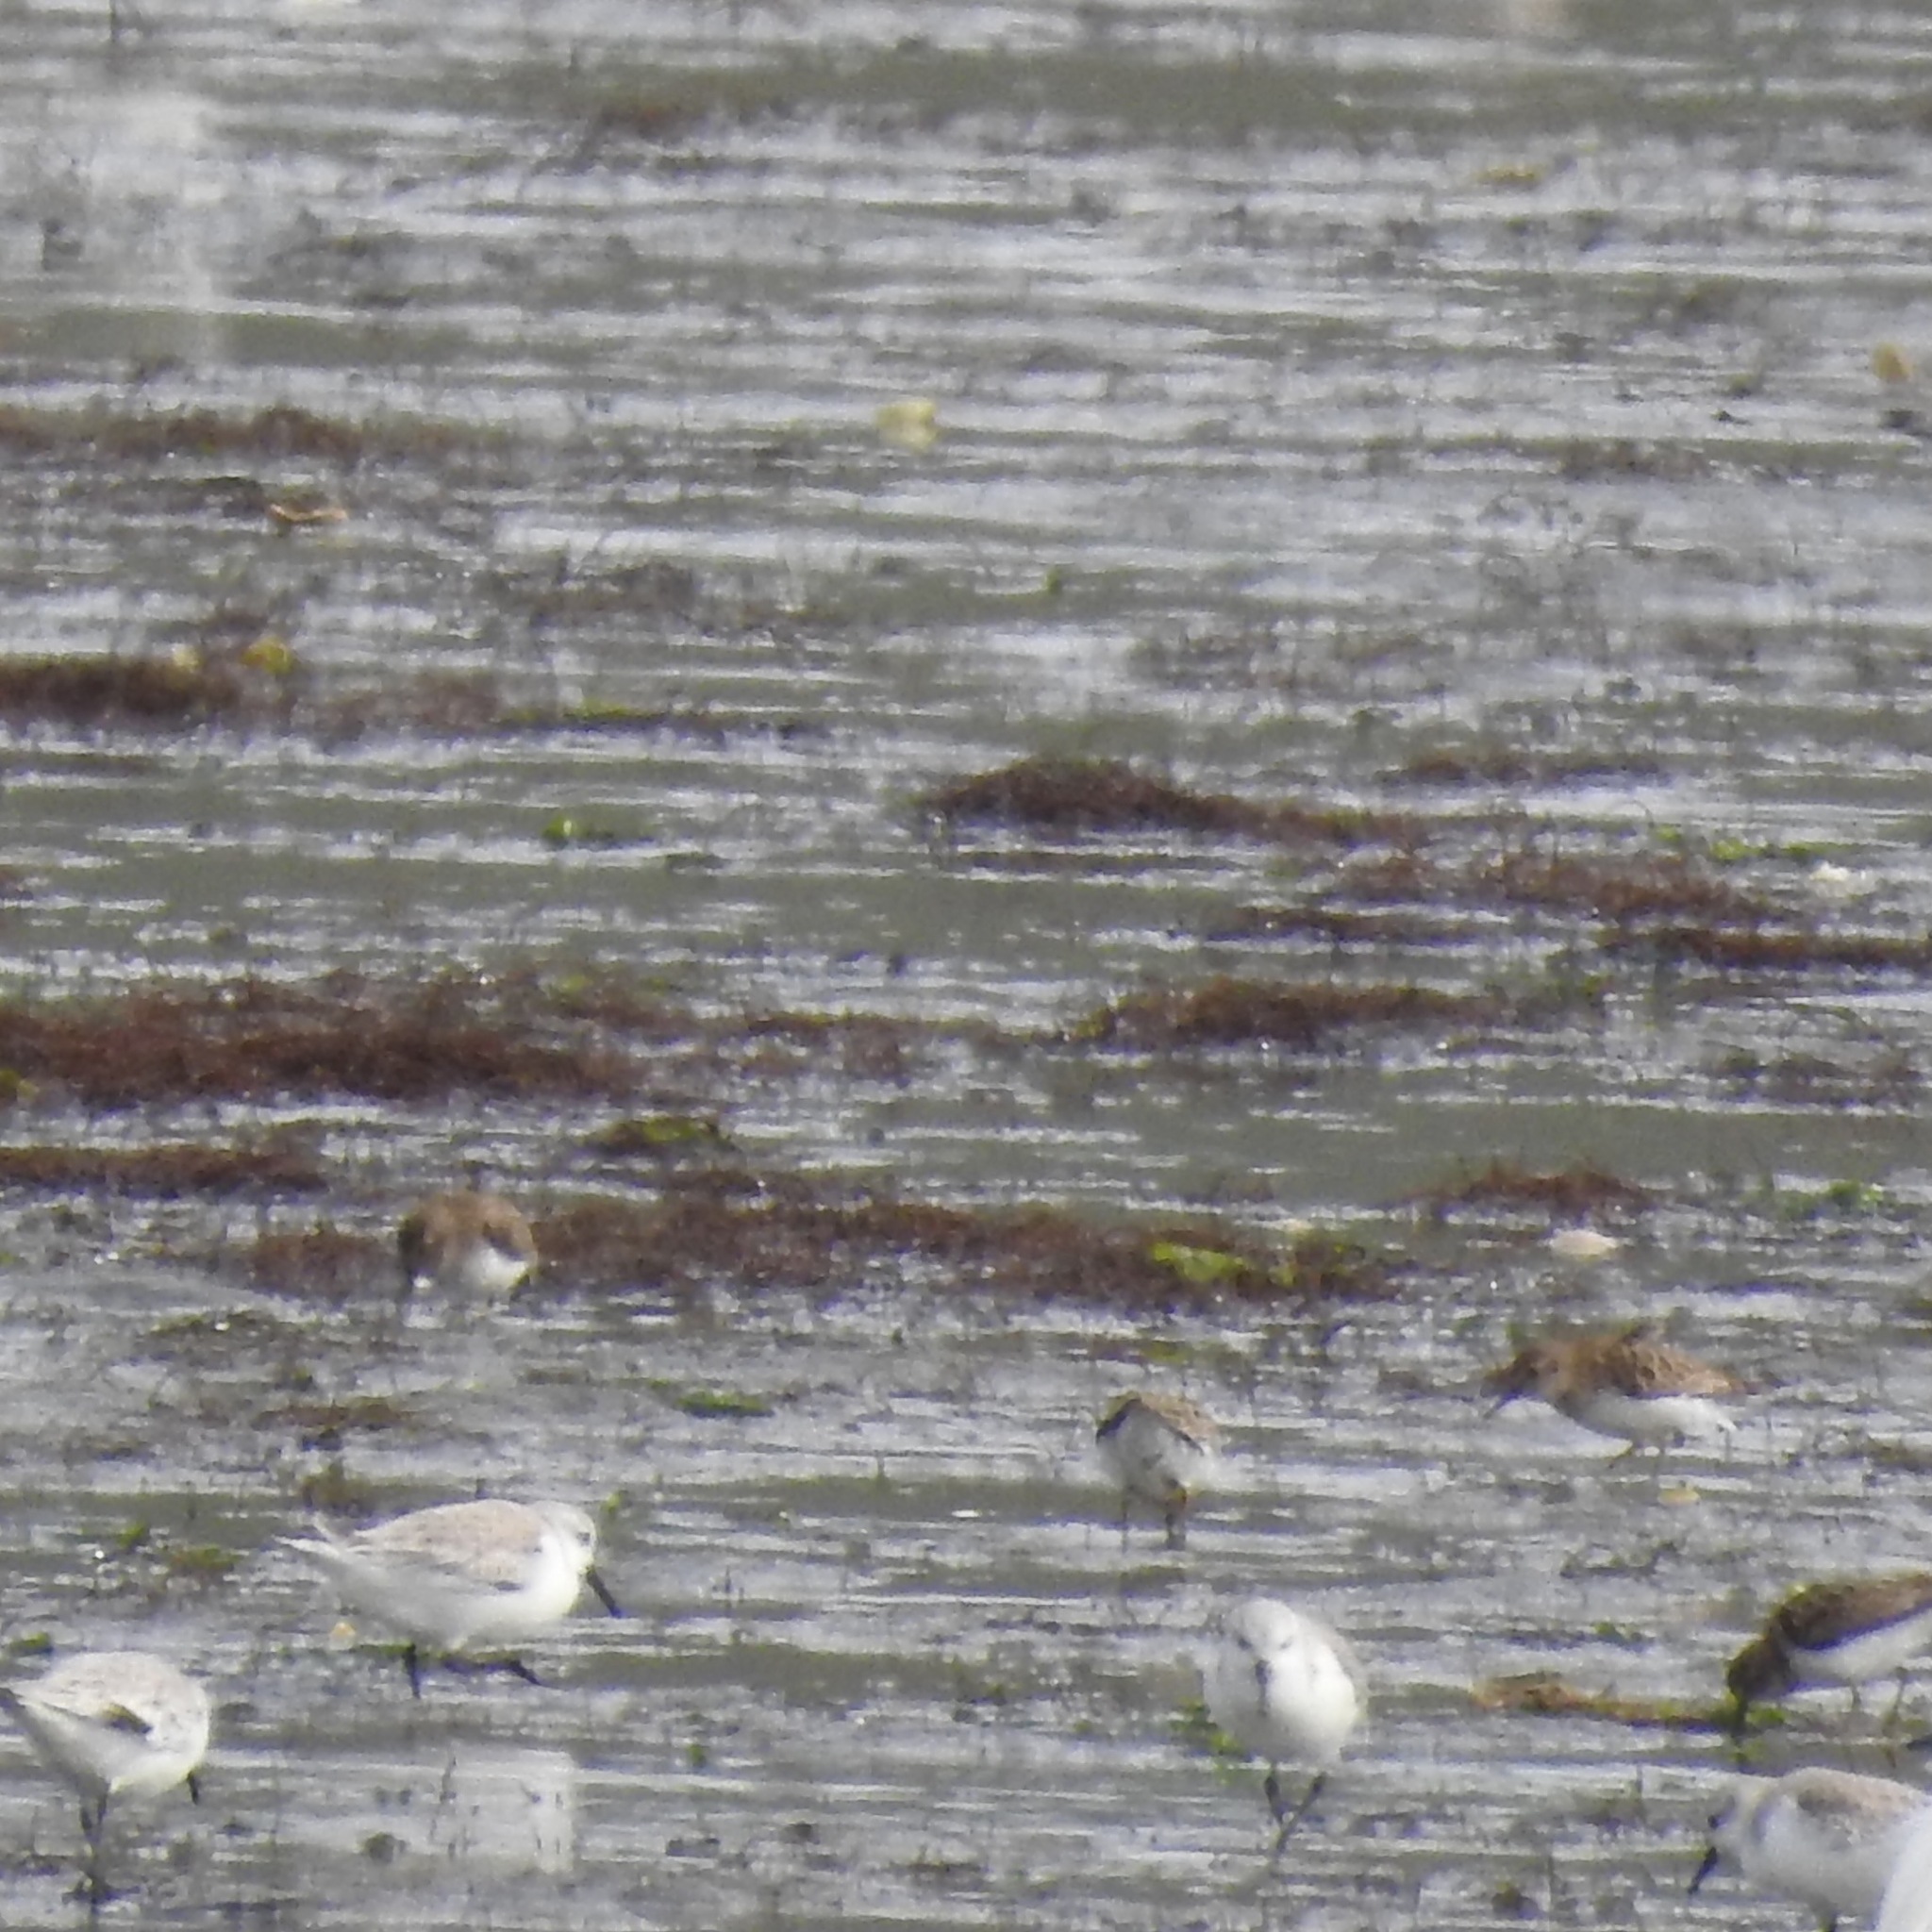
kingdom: Animalia
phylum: Chordata
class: Aves
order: Charadriiformes
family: Scolopacidae
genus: Calidris
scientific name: Calidris alba
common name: Sanderling
